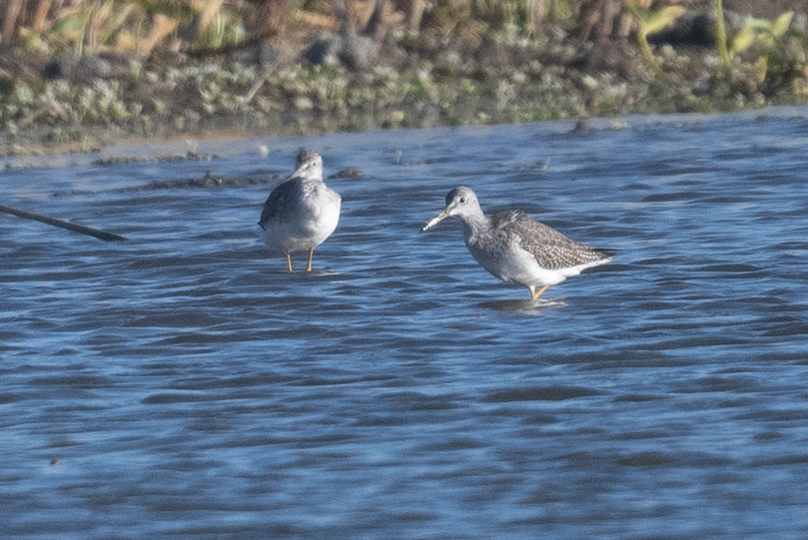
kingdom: Animalia
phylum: Chordata
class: Aves
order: Charadriiformes
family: Scolopacidae
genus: Tringa
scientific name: Tringa melanoleuca
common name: Greater yellowlegs
